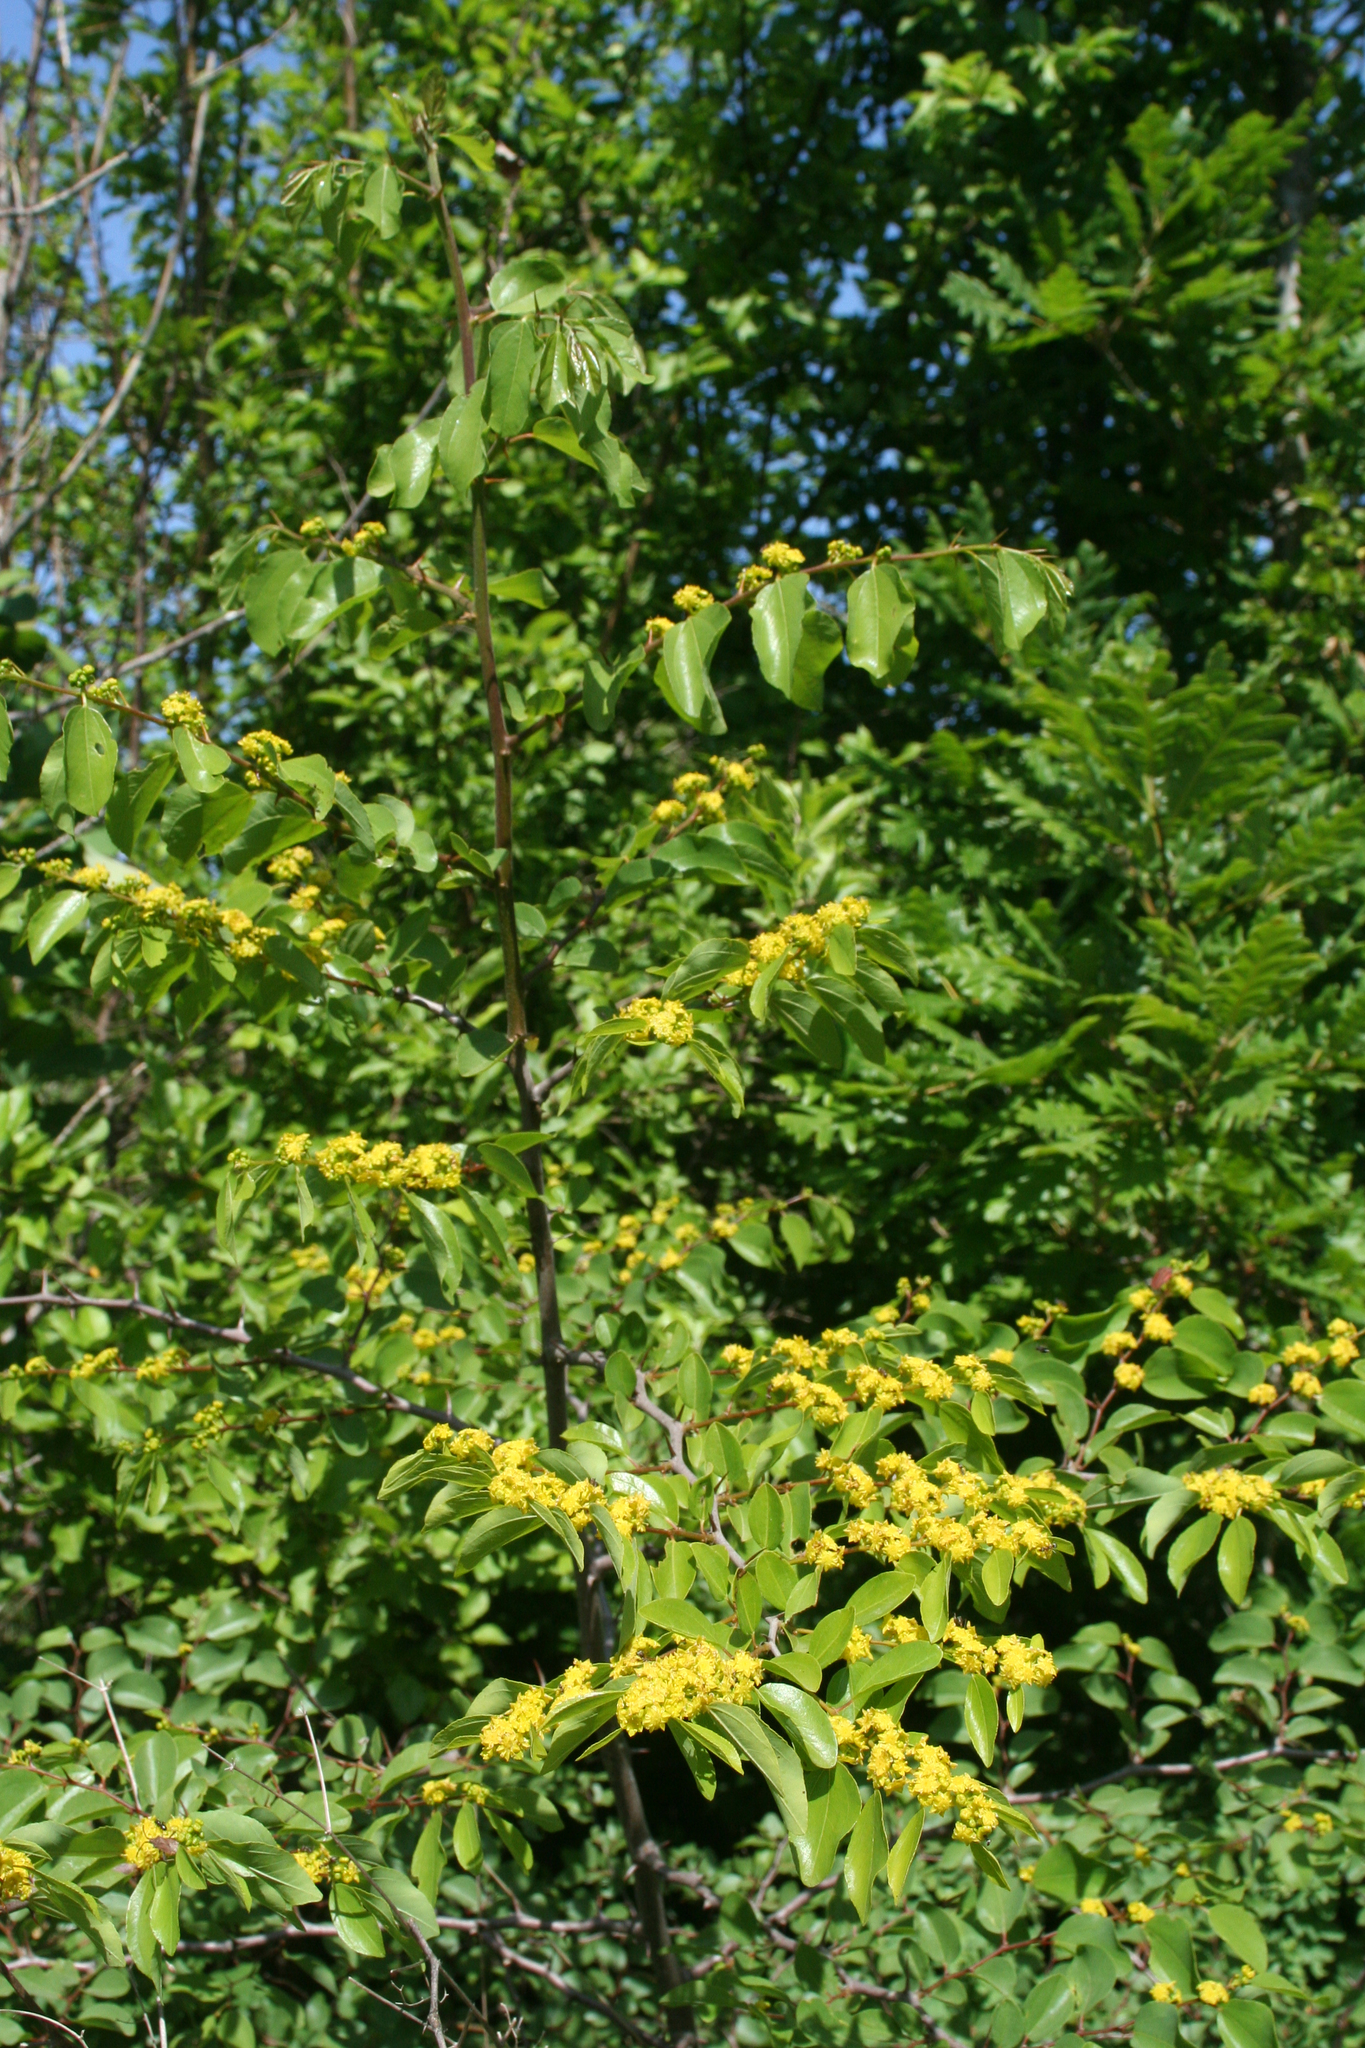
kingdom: Plantae
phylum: Tracheophyta
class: Magnoliopsida
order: Rosales
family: Rhamnaceae
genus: Paliurus
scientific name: Paliurus spina-christi
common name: Jeruselem thorn
